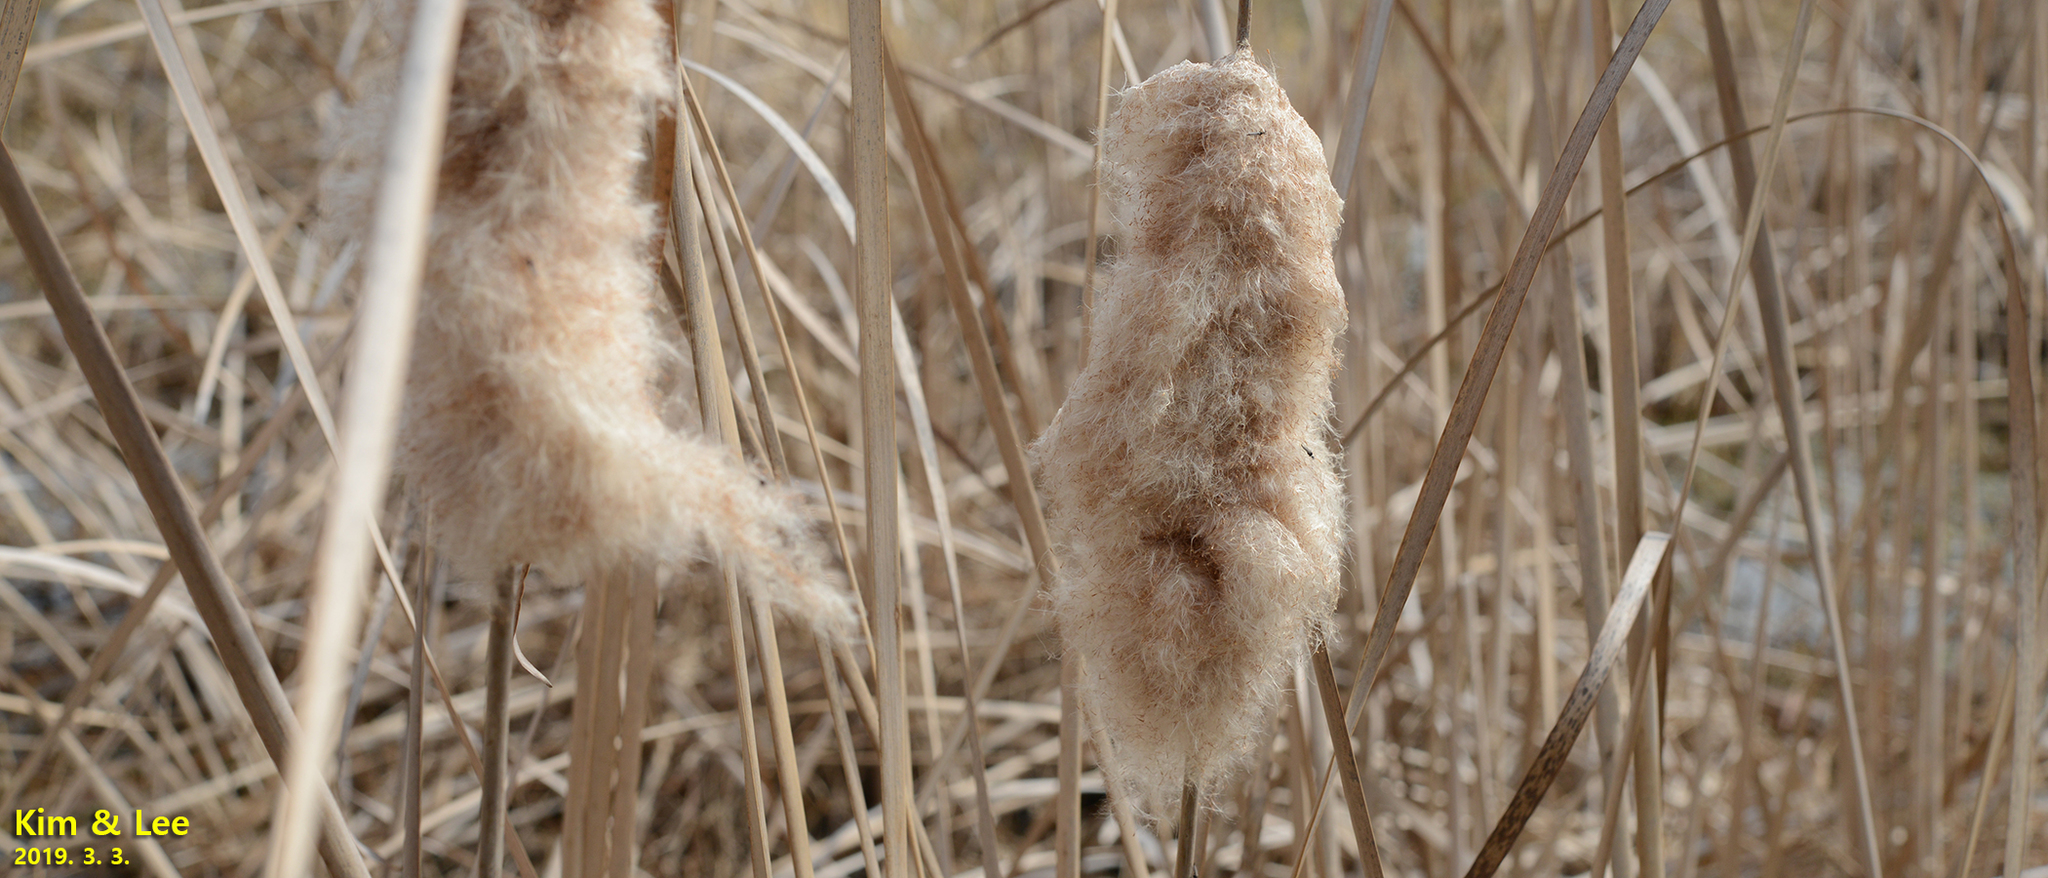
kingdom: Plantae
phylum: Tracheophyta
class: Liliopsida
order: Poales
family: Typhaceae
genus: Typha
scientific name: Typha orientalis
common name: Bullrush
